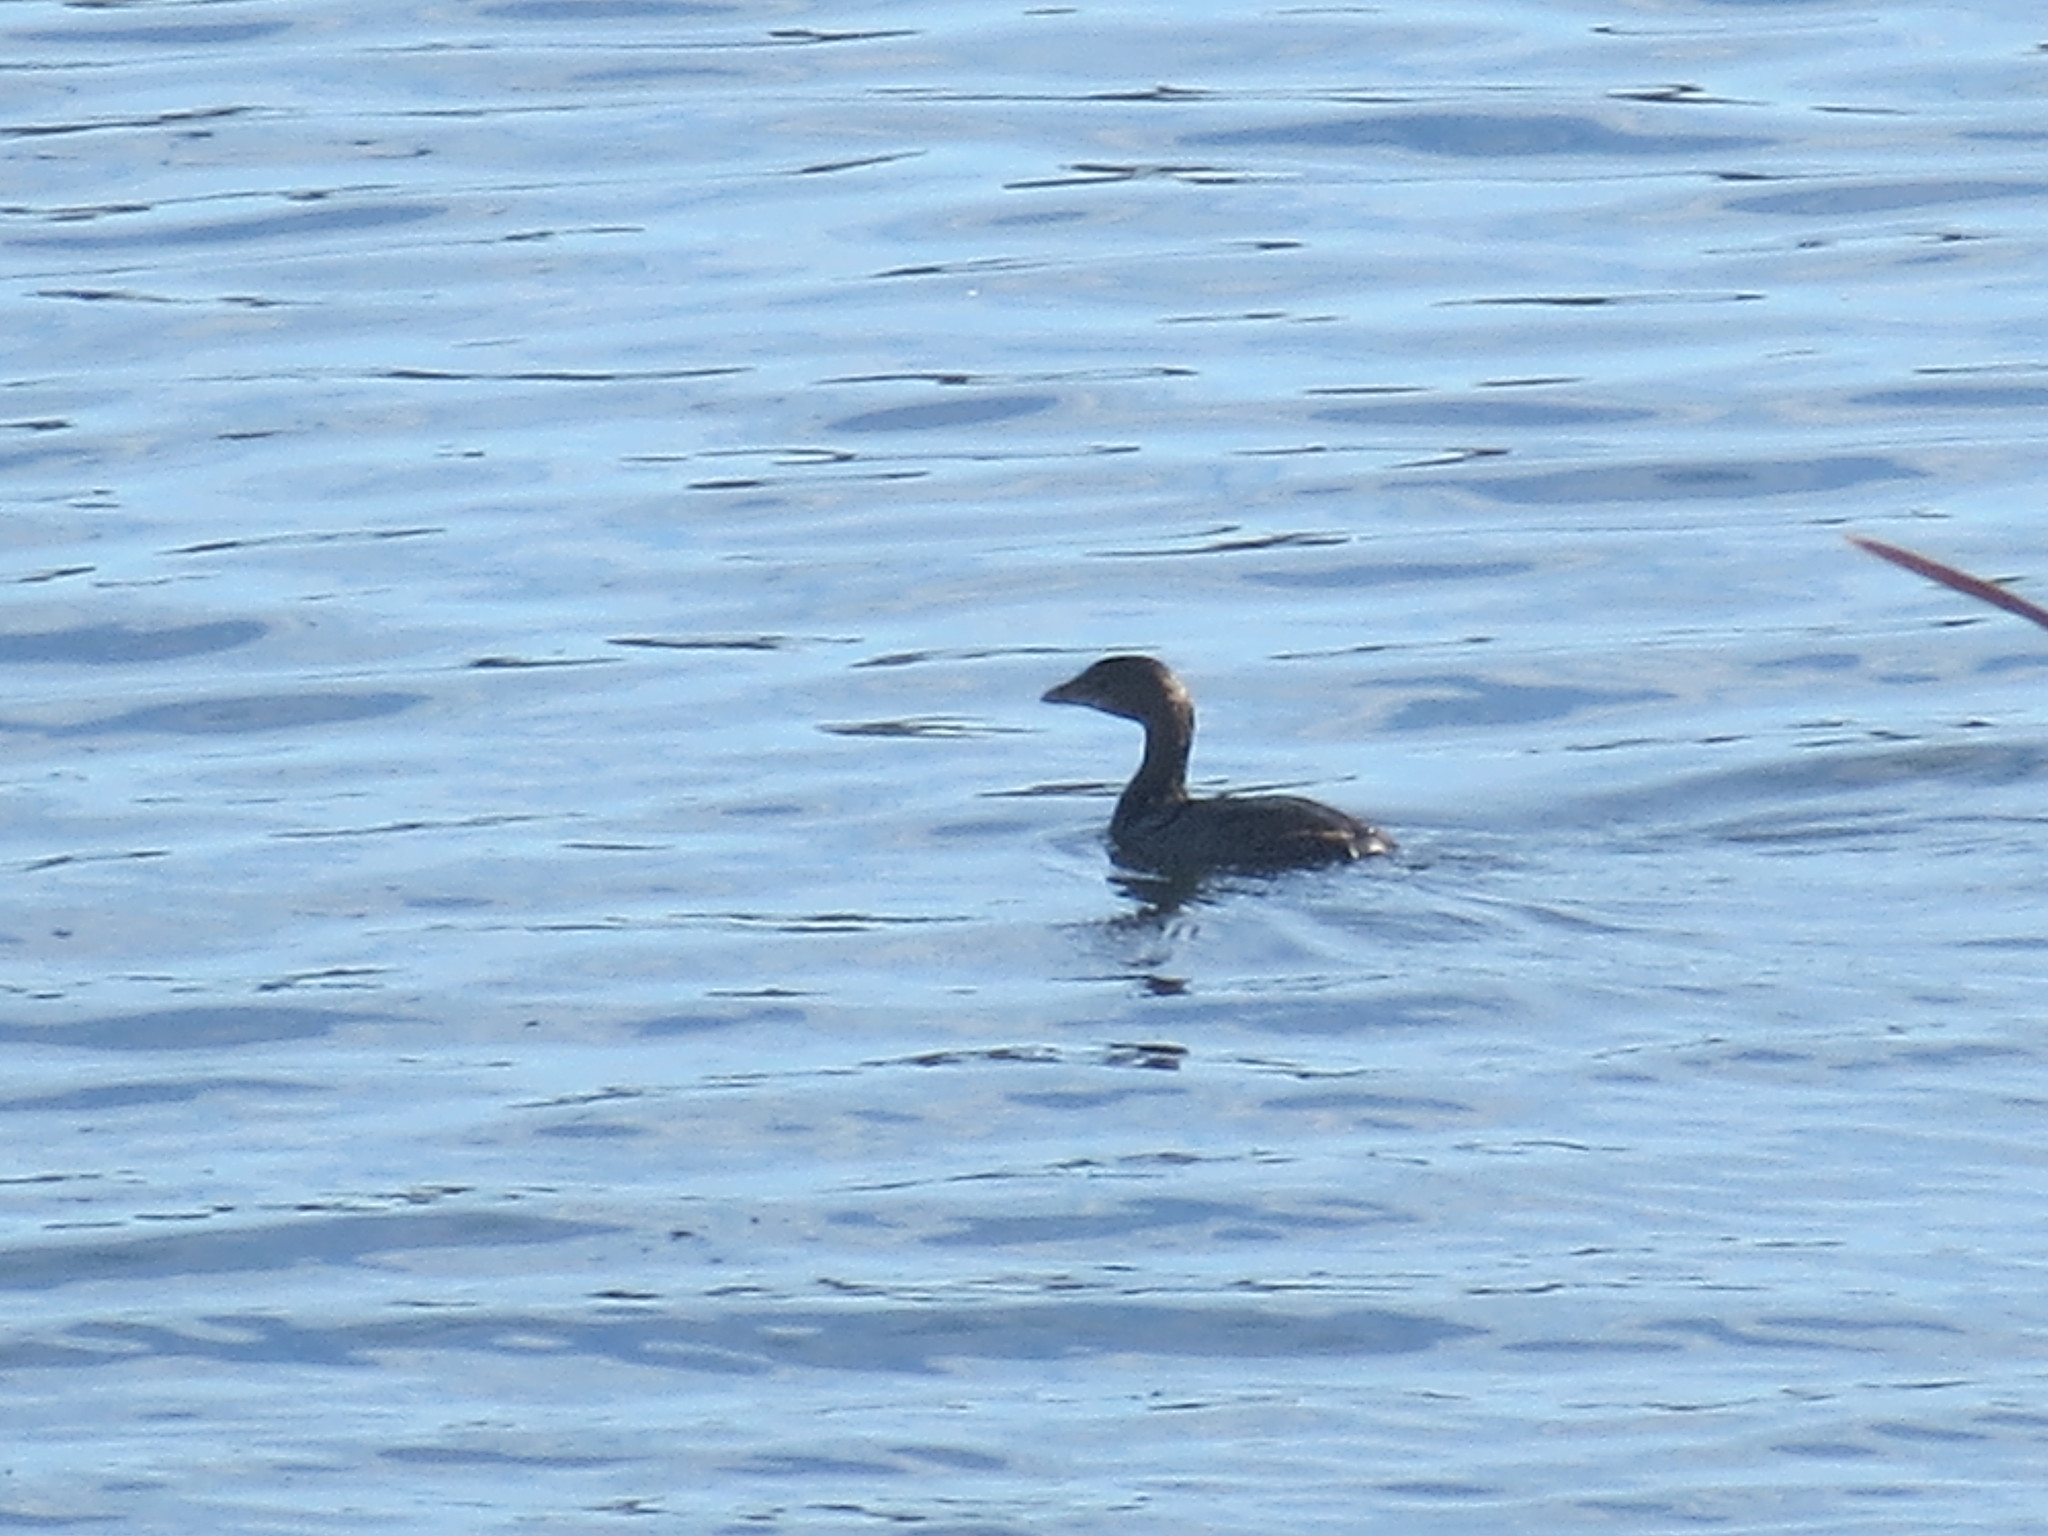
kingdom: Animalia
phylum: Chordata
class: Aves
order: Podicipediformes
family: Podicipedidae
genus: Podilymbus
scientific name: Podilymbus podiceps
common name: Pied-billed grebe
